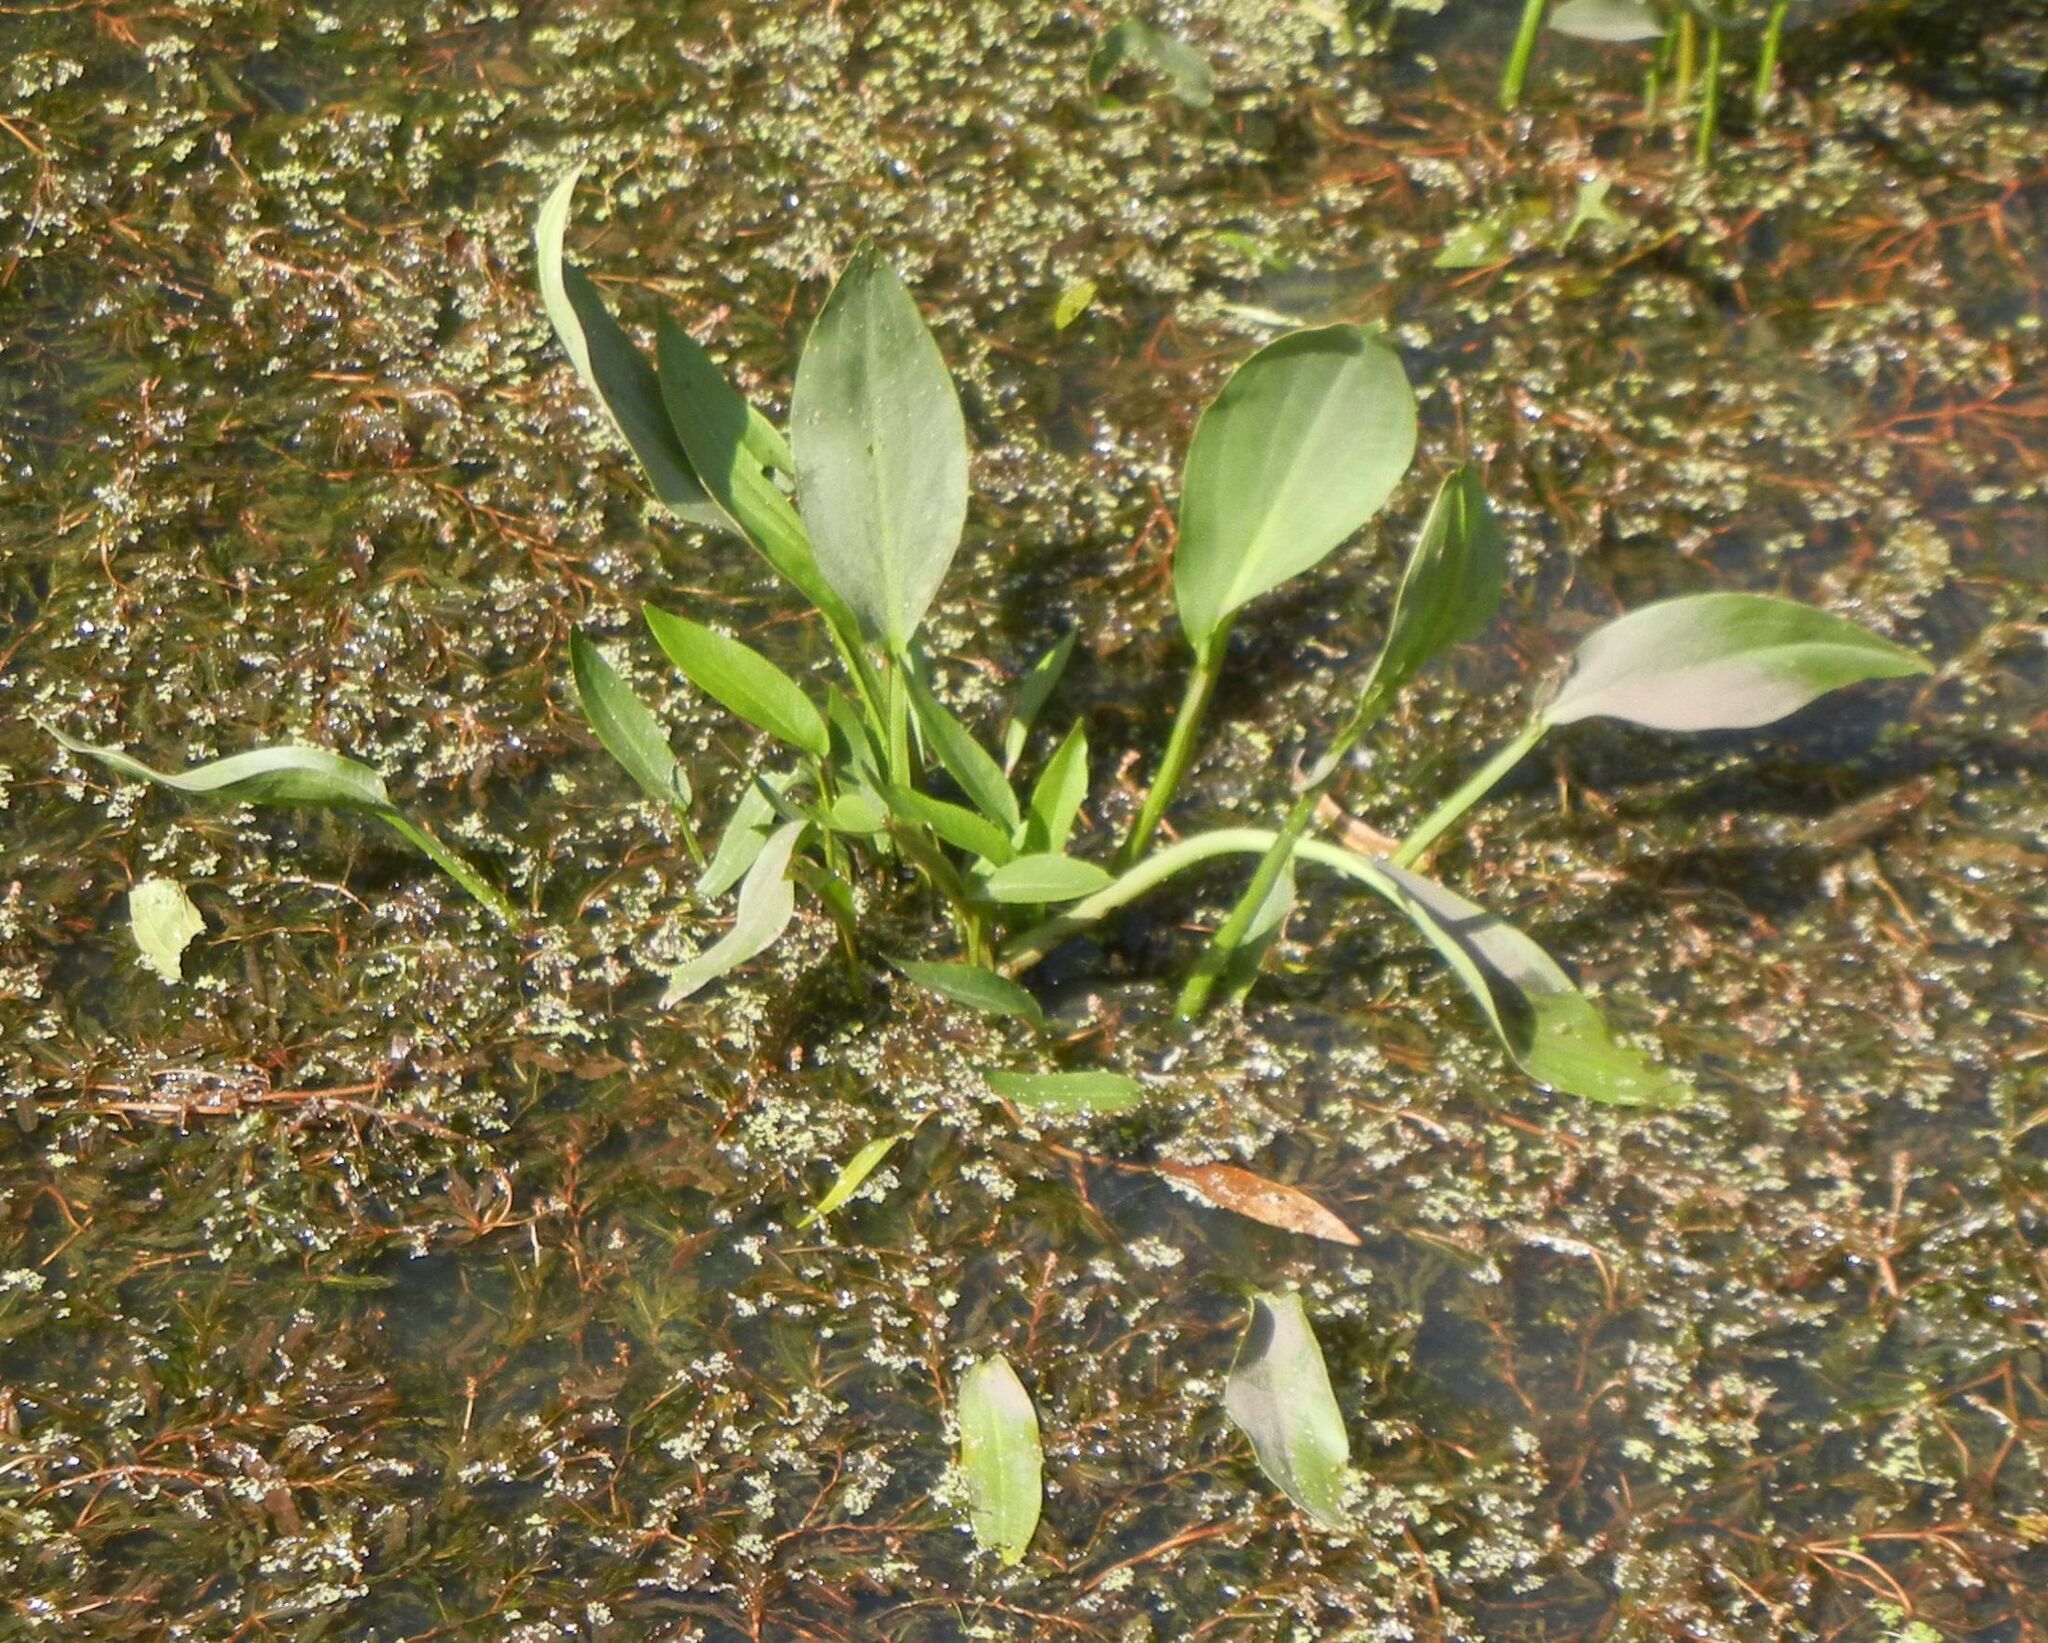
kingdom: Plantae
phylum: Tracheophyta
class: Liliopsida
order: Alismatales
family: Alismataceae
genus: Alisma
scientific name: Alisma plantago-aquatica
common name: Water-plantain
